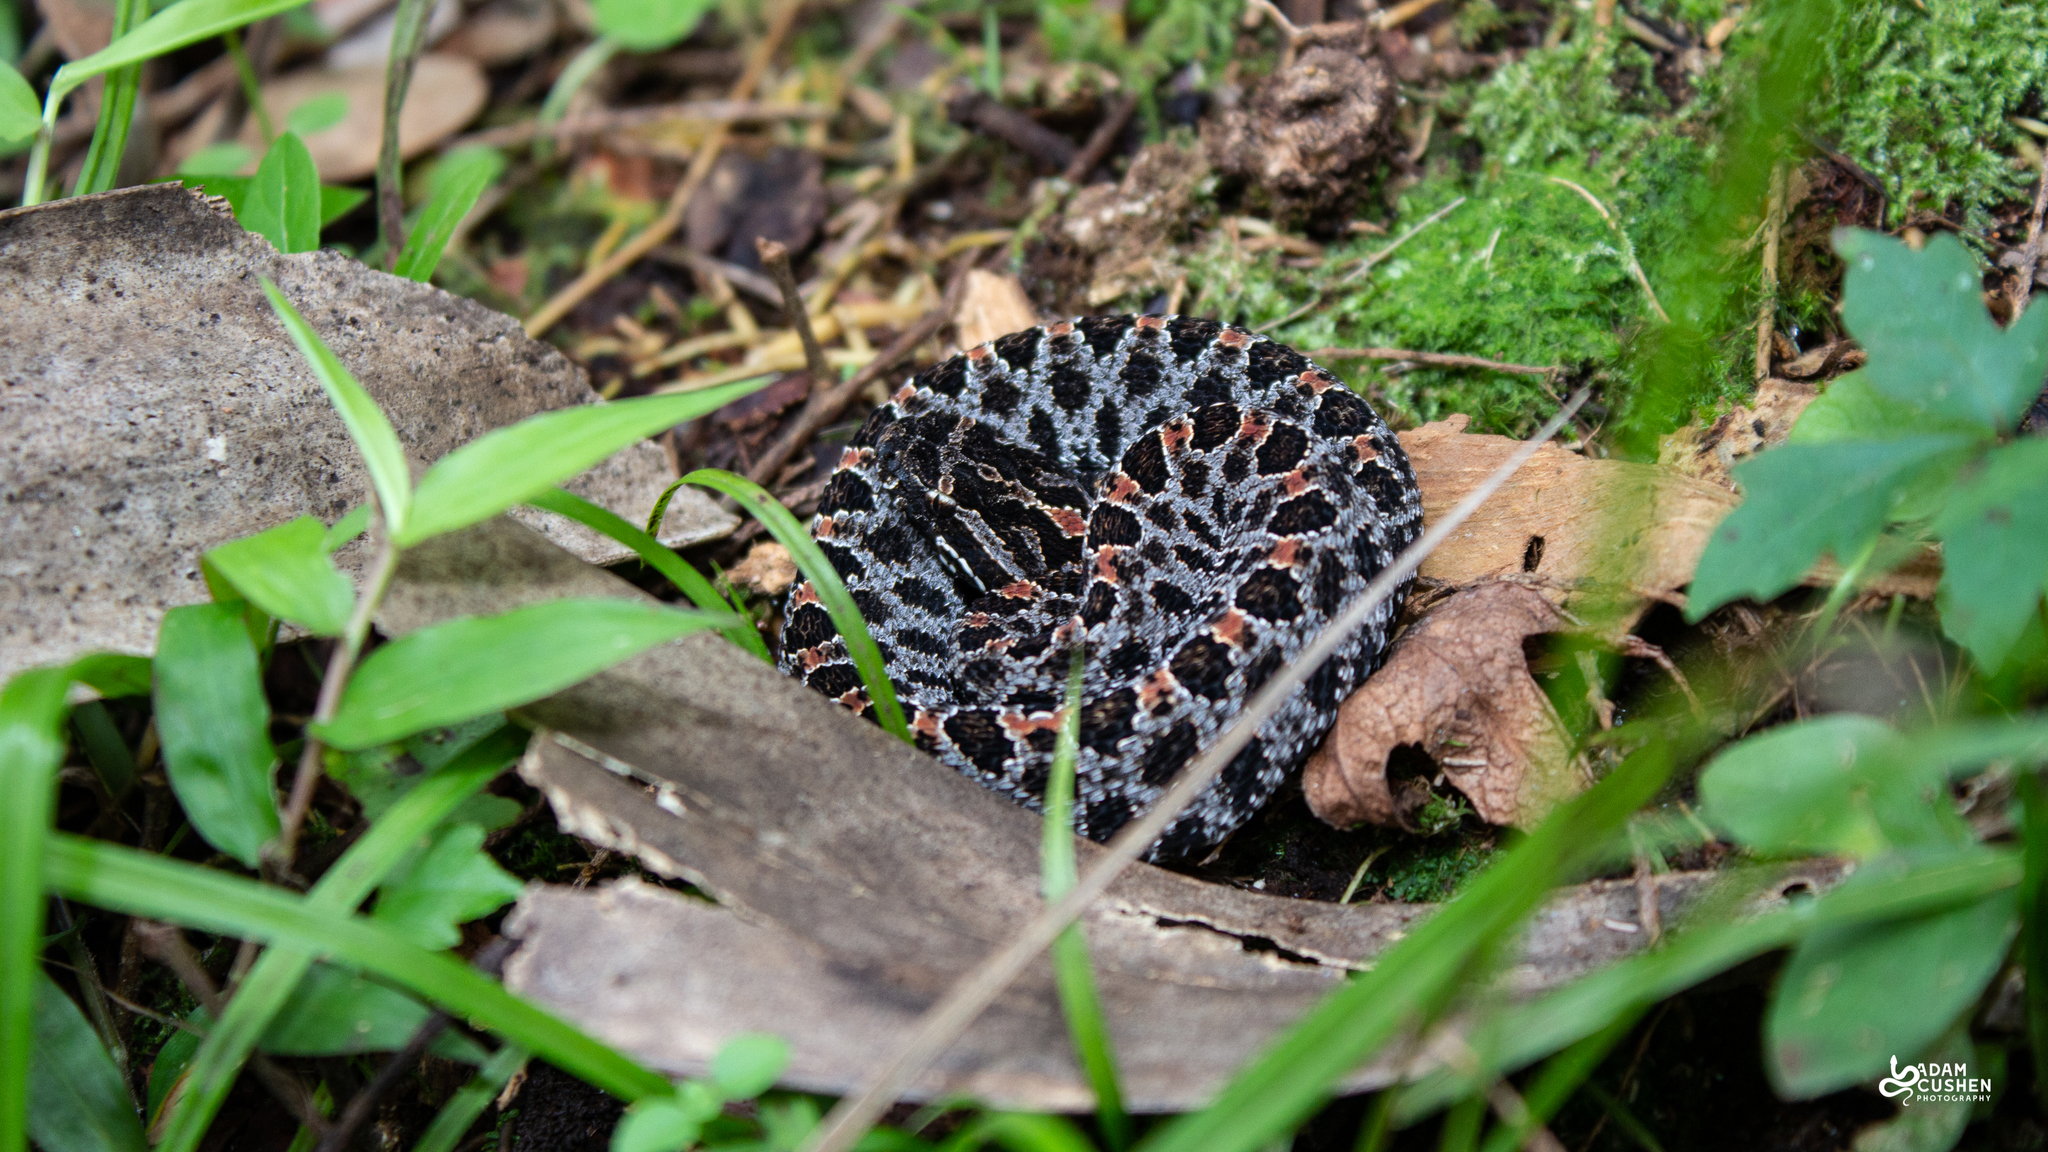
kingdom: Animalia
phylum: Chordata
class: Squamata
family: Viperidae
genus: Sistrurus
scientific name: Sistrurus miliarius
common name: Pygmy rattlesnake
